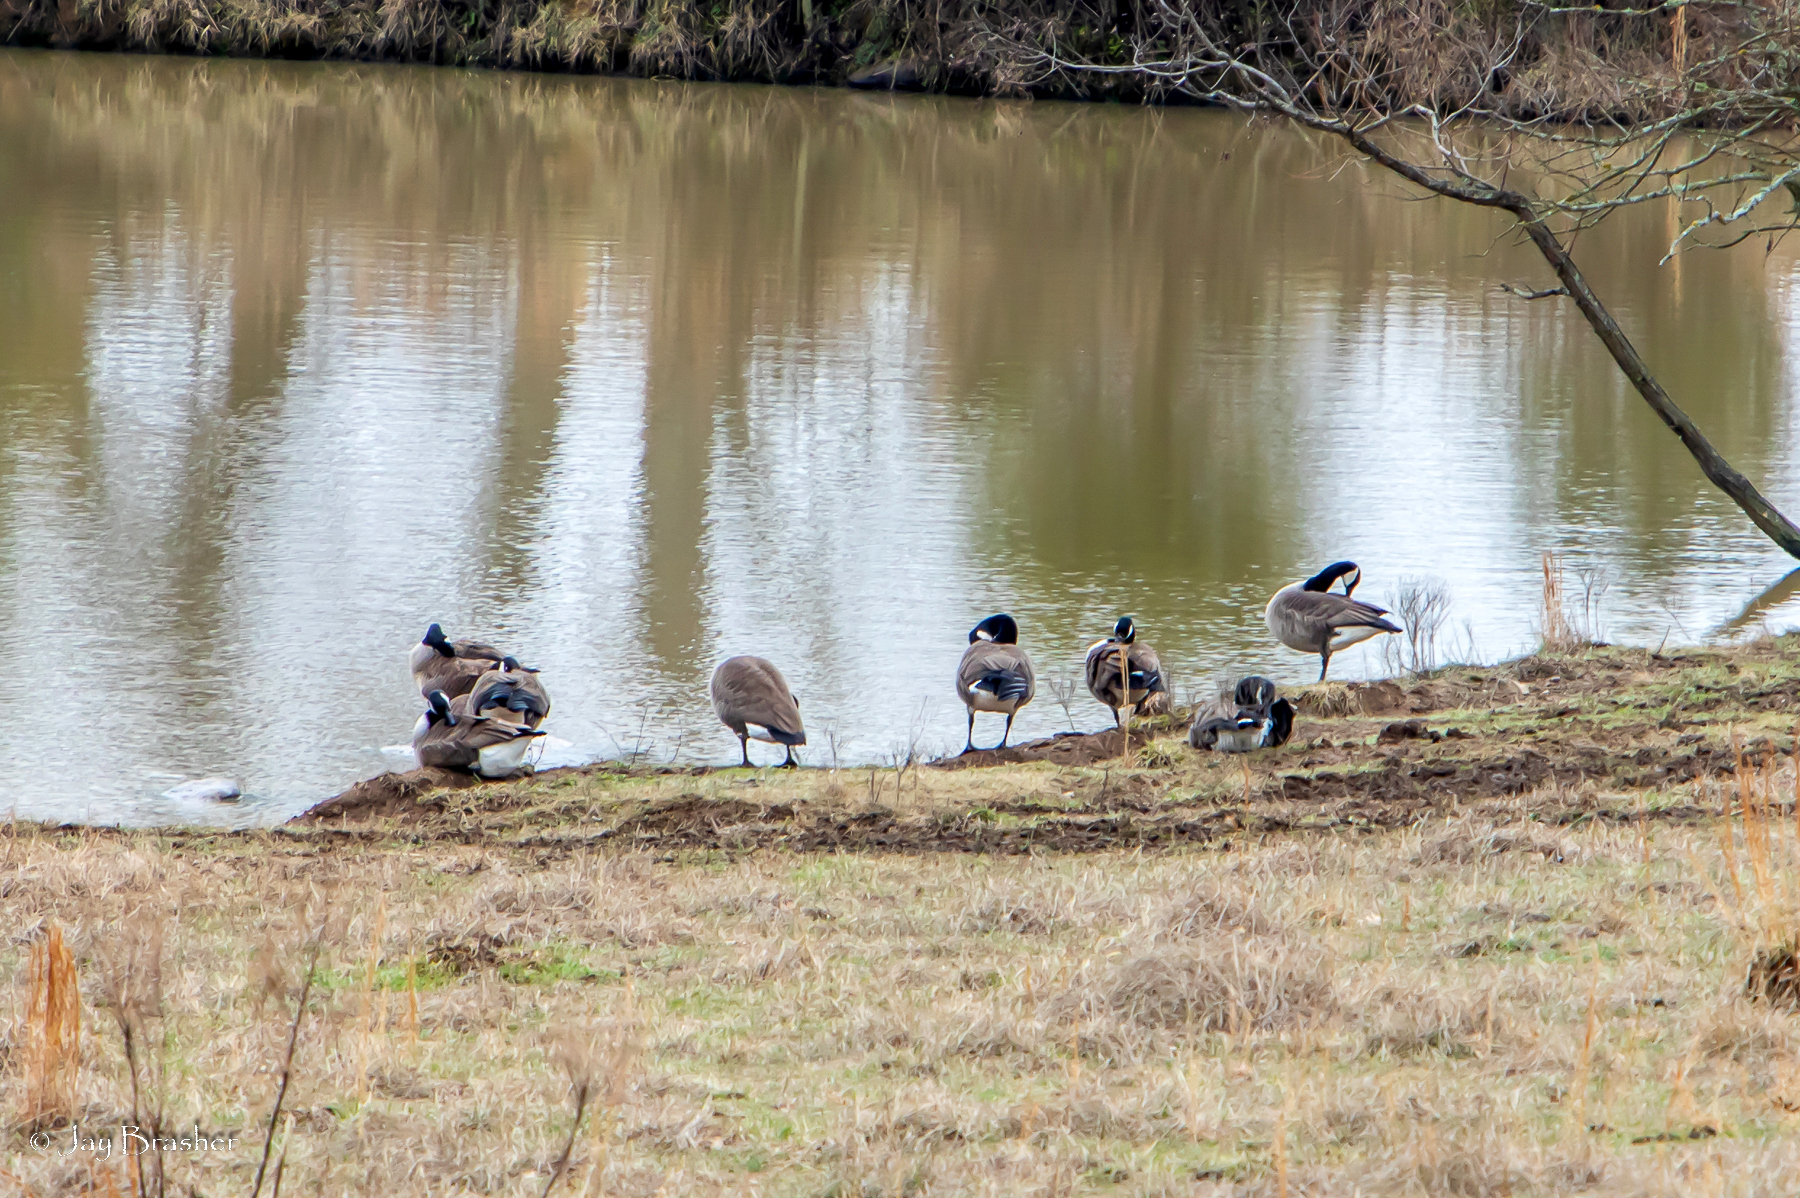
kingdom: Animalia
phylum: Chordata
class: Aves
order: Anseriformes
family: Anatidae
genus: Branta
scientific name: Branta canadensis
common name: Canada goose
